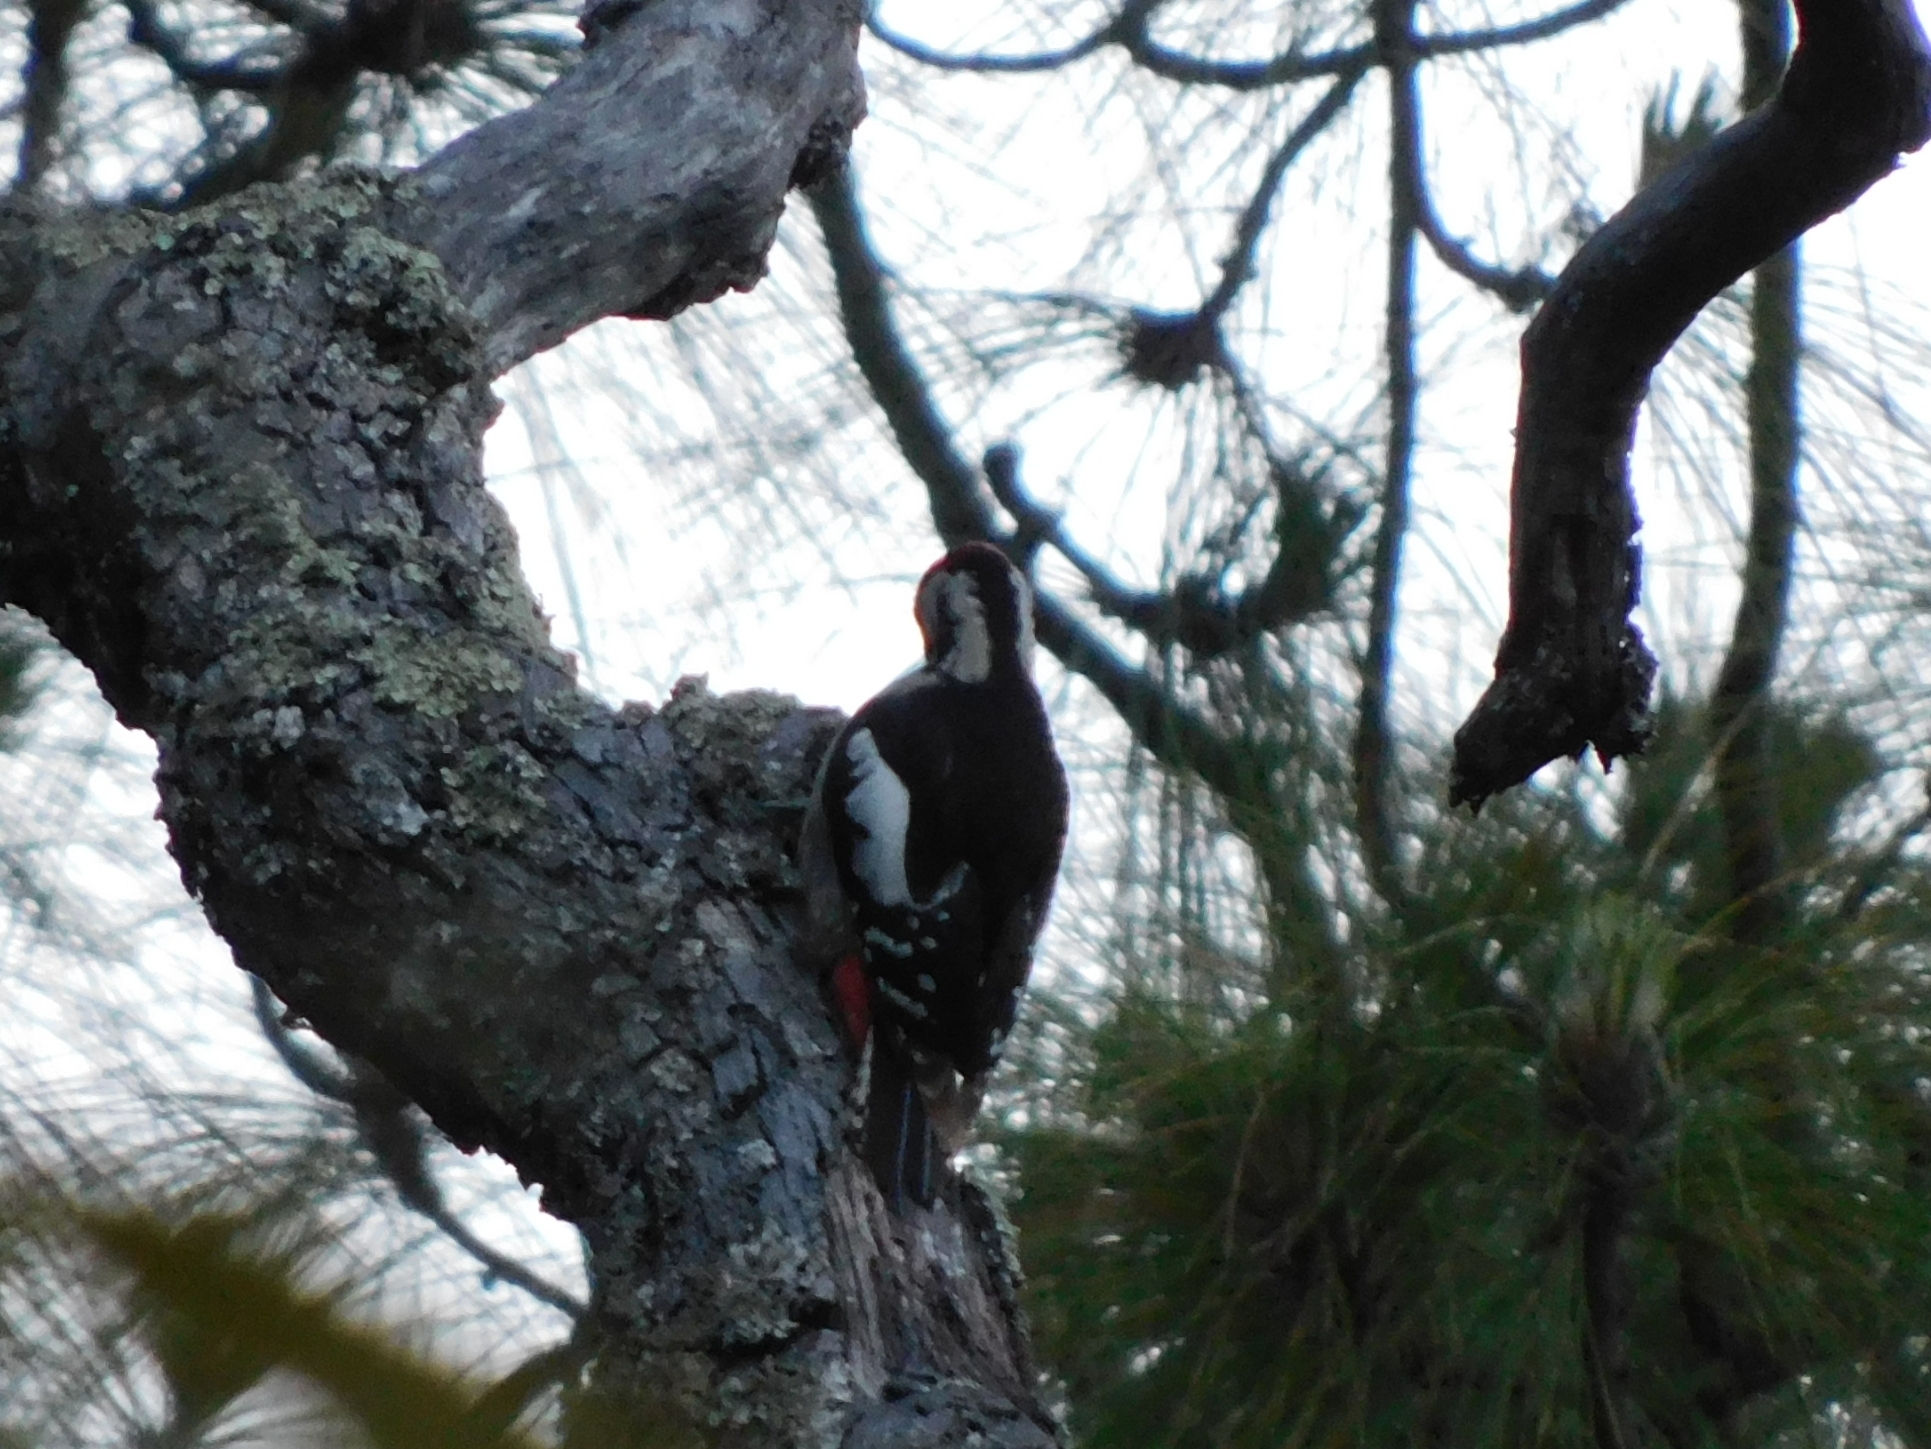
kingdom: Animalia
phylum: Chordata
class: Aves
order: Piciformes
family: Picidae
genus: Dendrocopos
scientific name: Dendrocopos himalayensis
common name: Himalayan woodpecker
